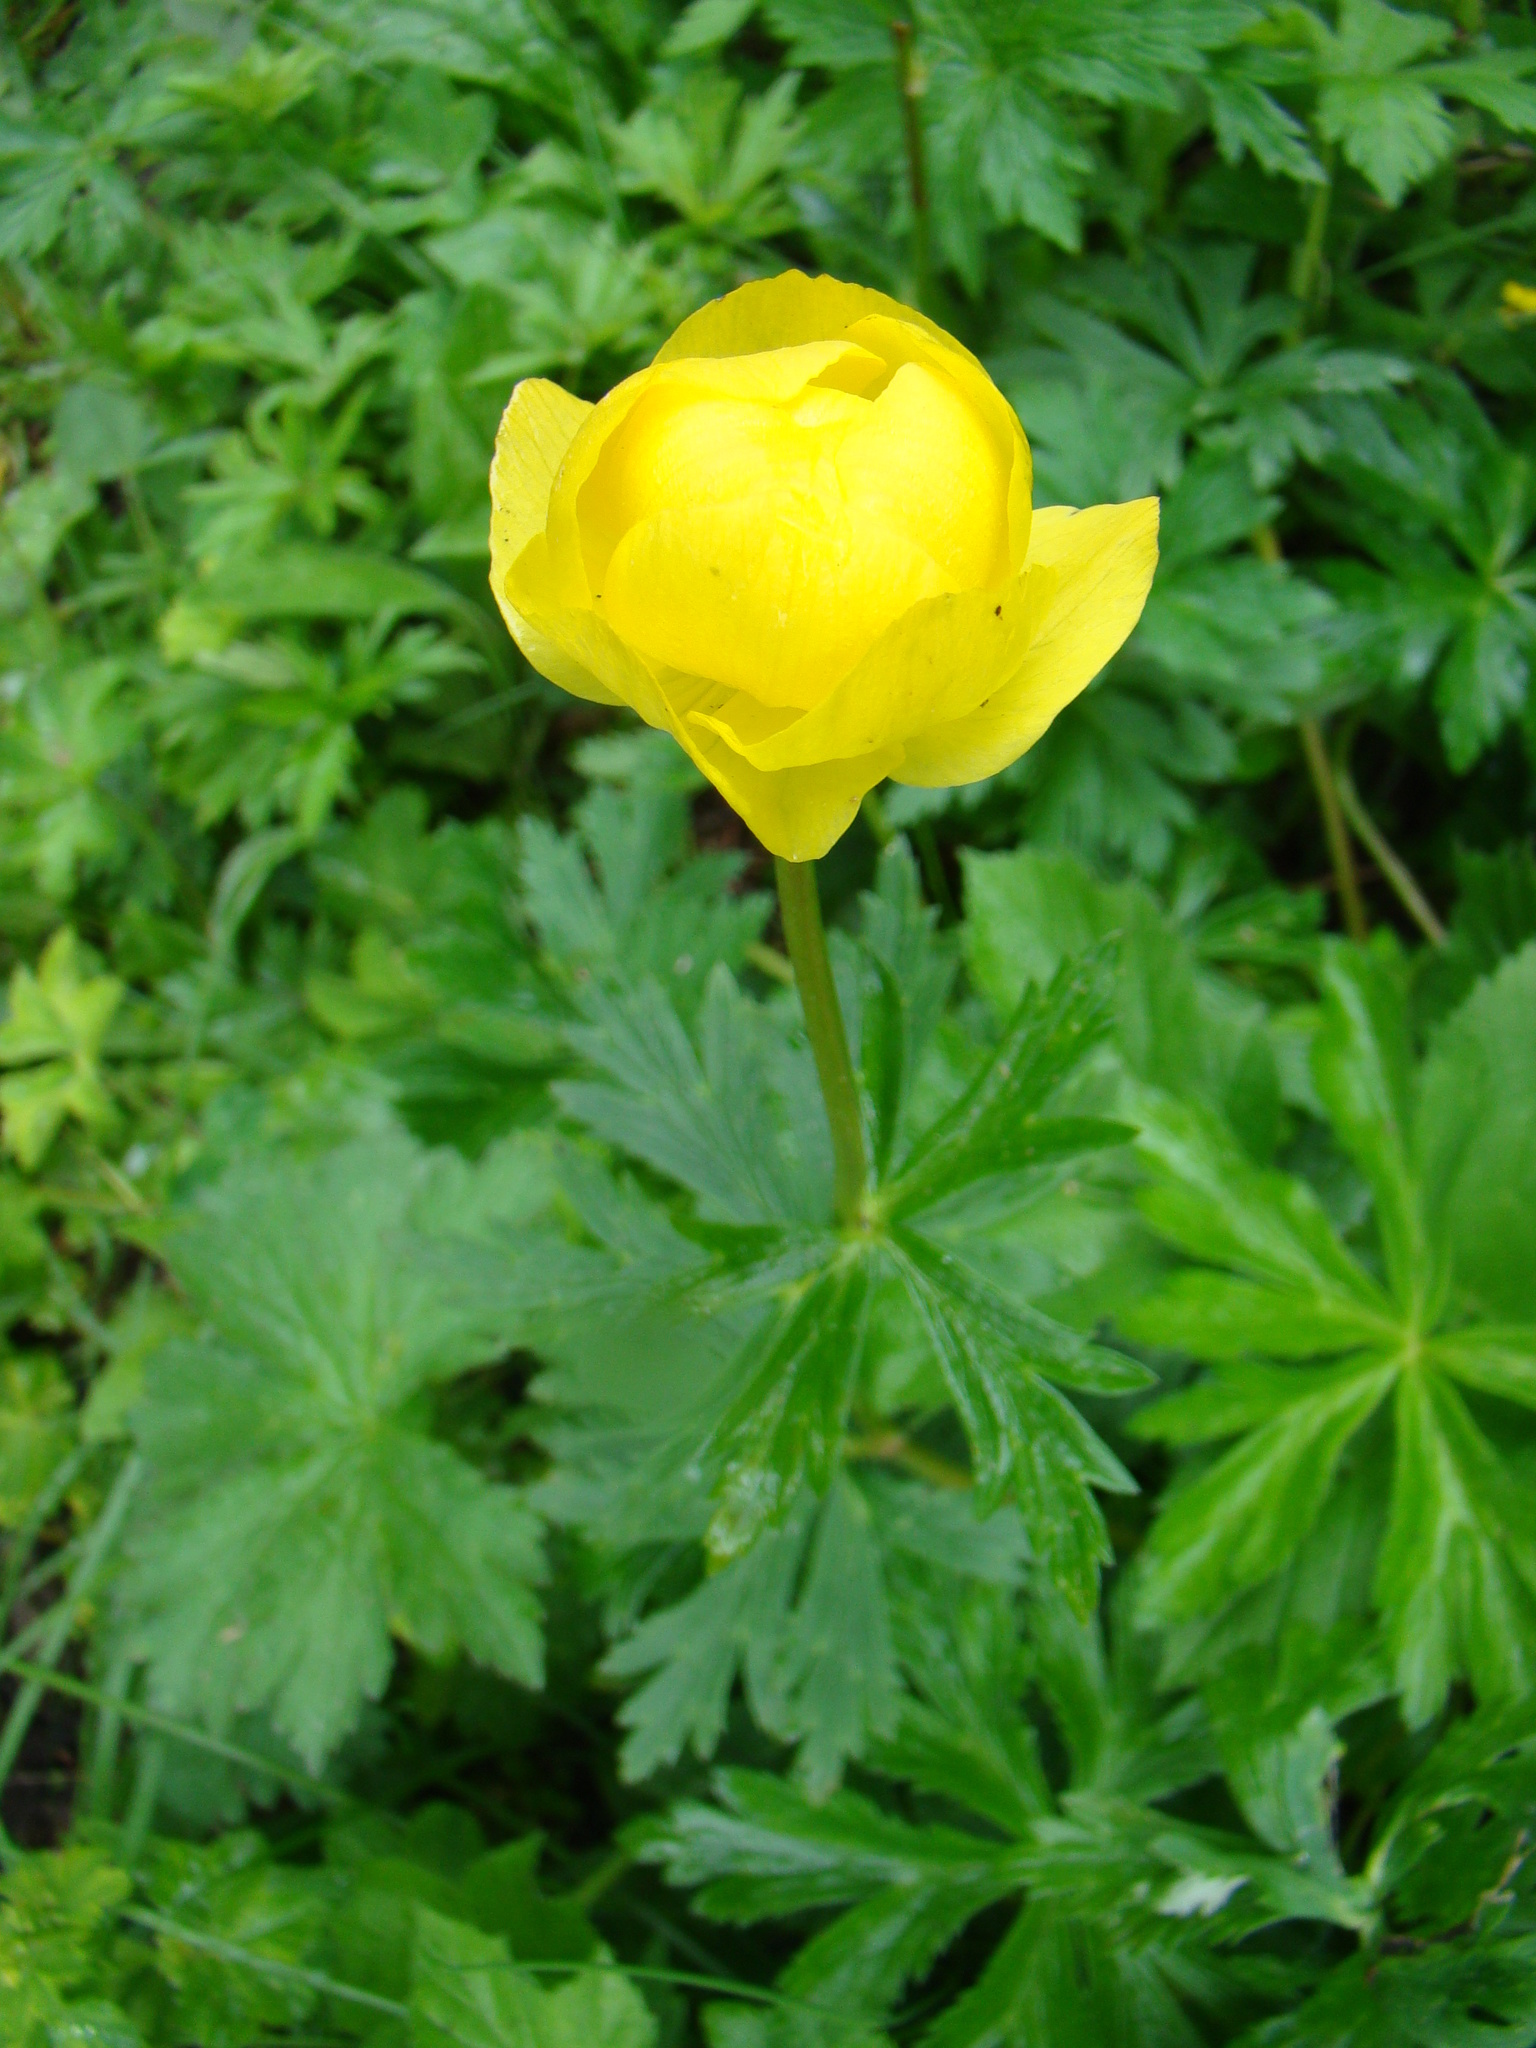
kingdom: Plantae
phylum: Tracheophyta
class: Magnoliopsida
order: Ranunculales
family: Ranunculaceae
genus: Trollius
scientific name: Trollius europaeus
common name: European globeflower
